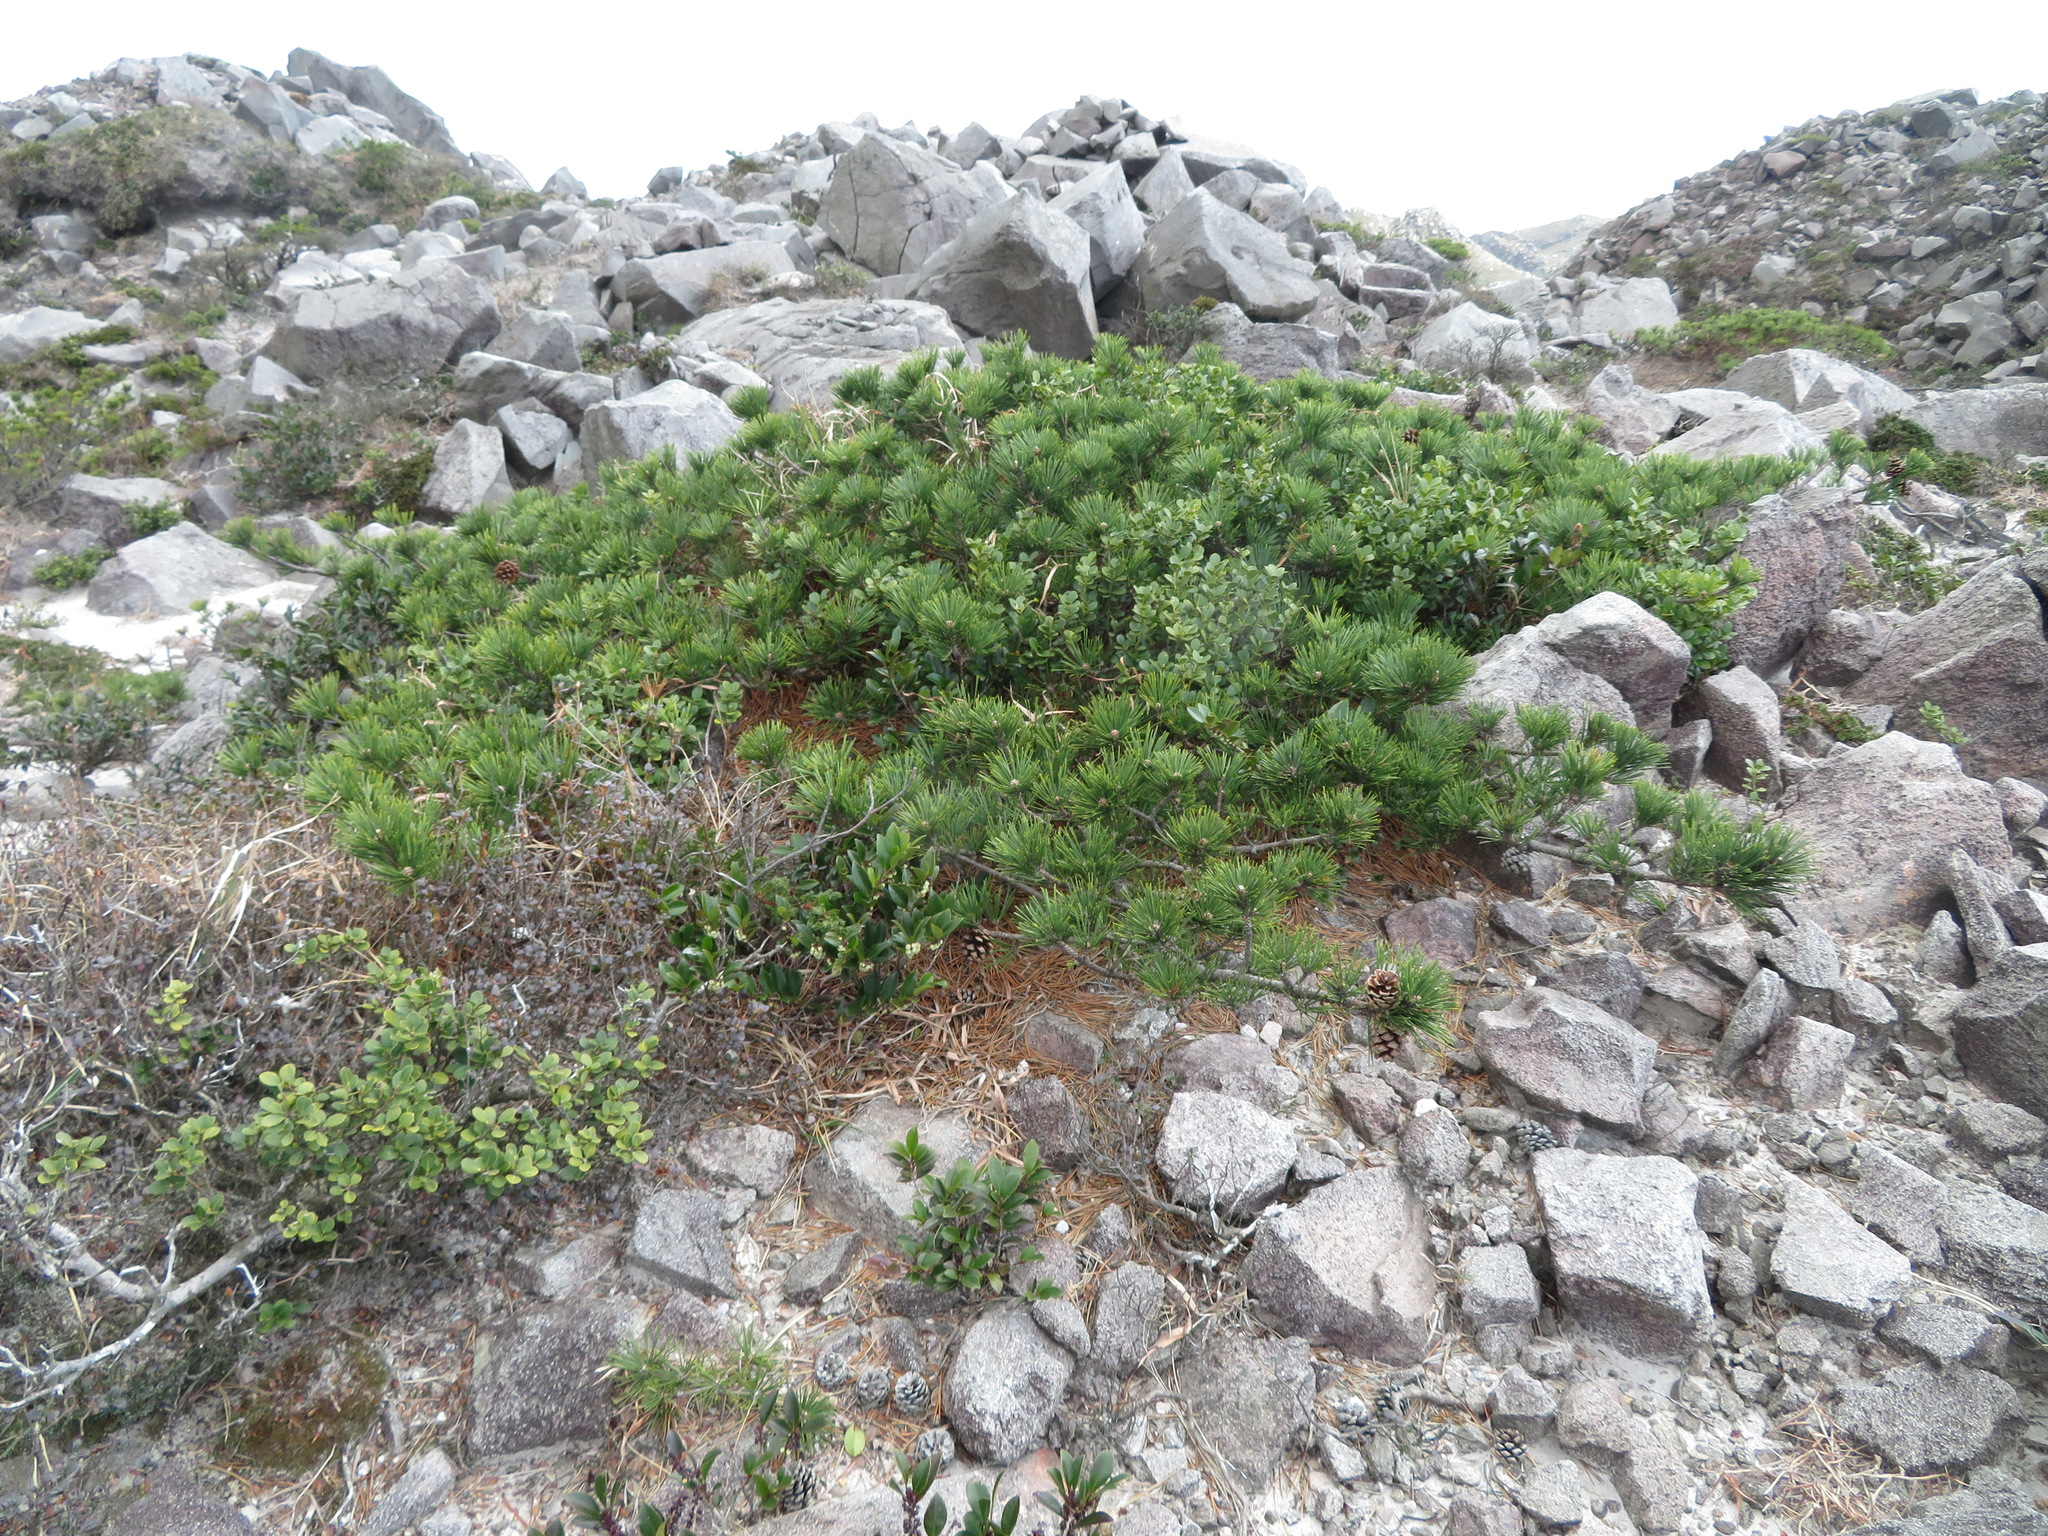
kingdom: Plantae
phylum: Tracheophyta
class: Pinopsida
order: Pinales
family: Pinaceae
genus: Pinus
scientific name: Pinus thunbergii
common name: Japanese black pine
